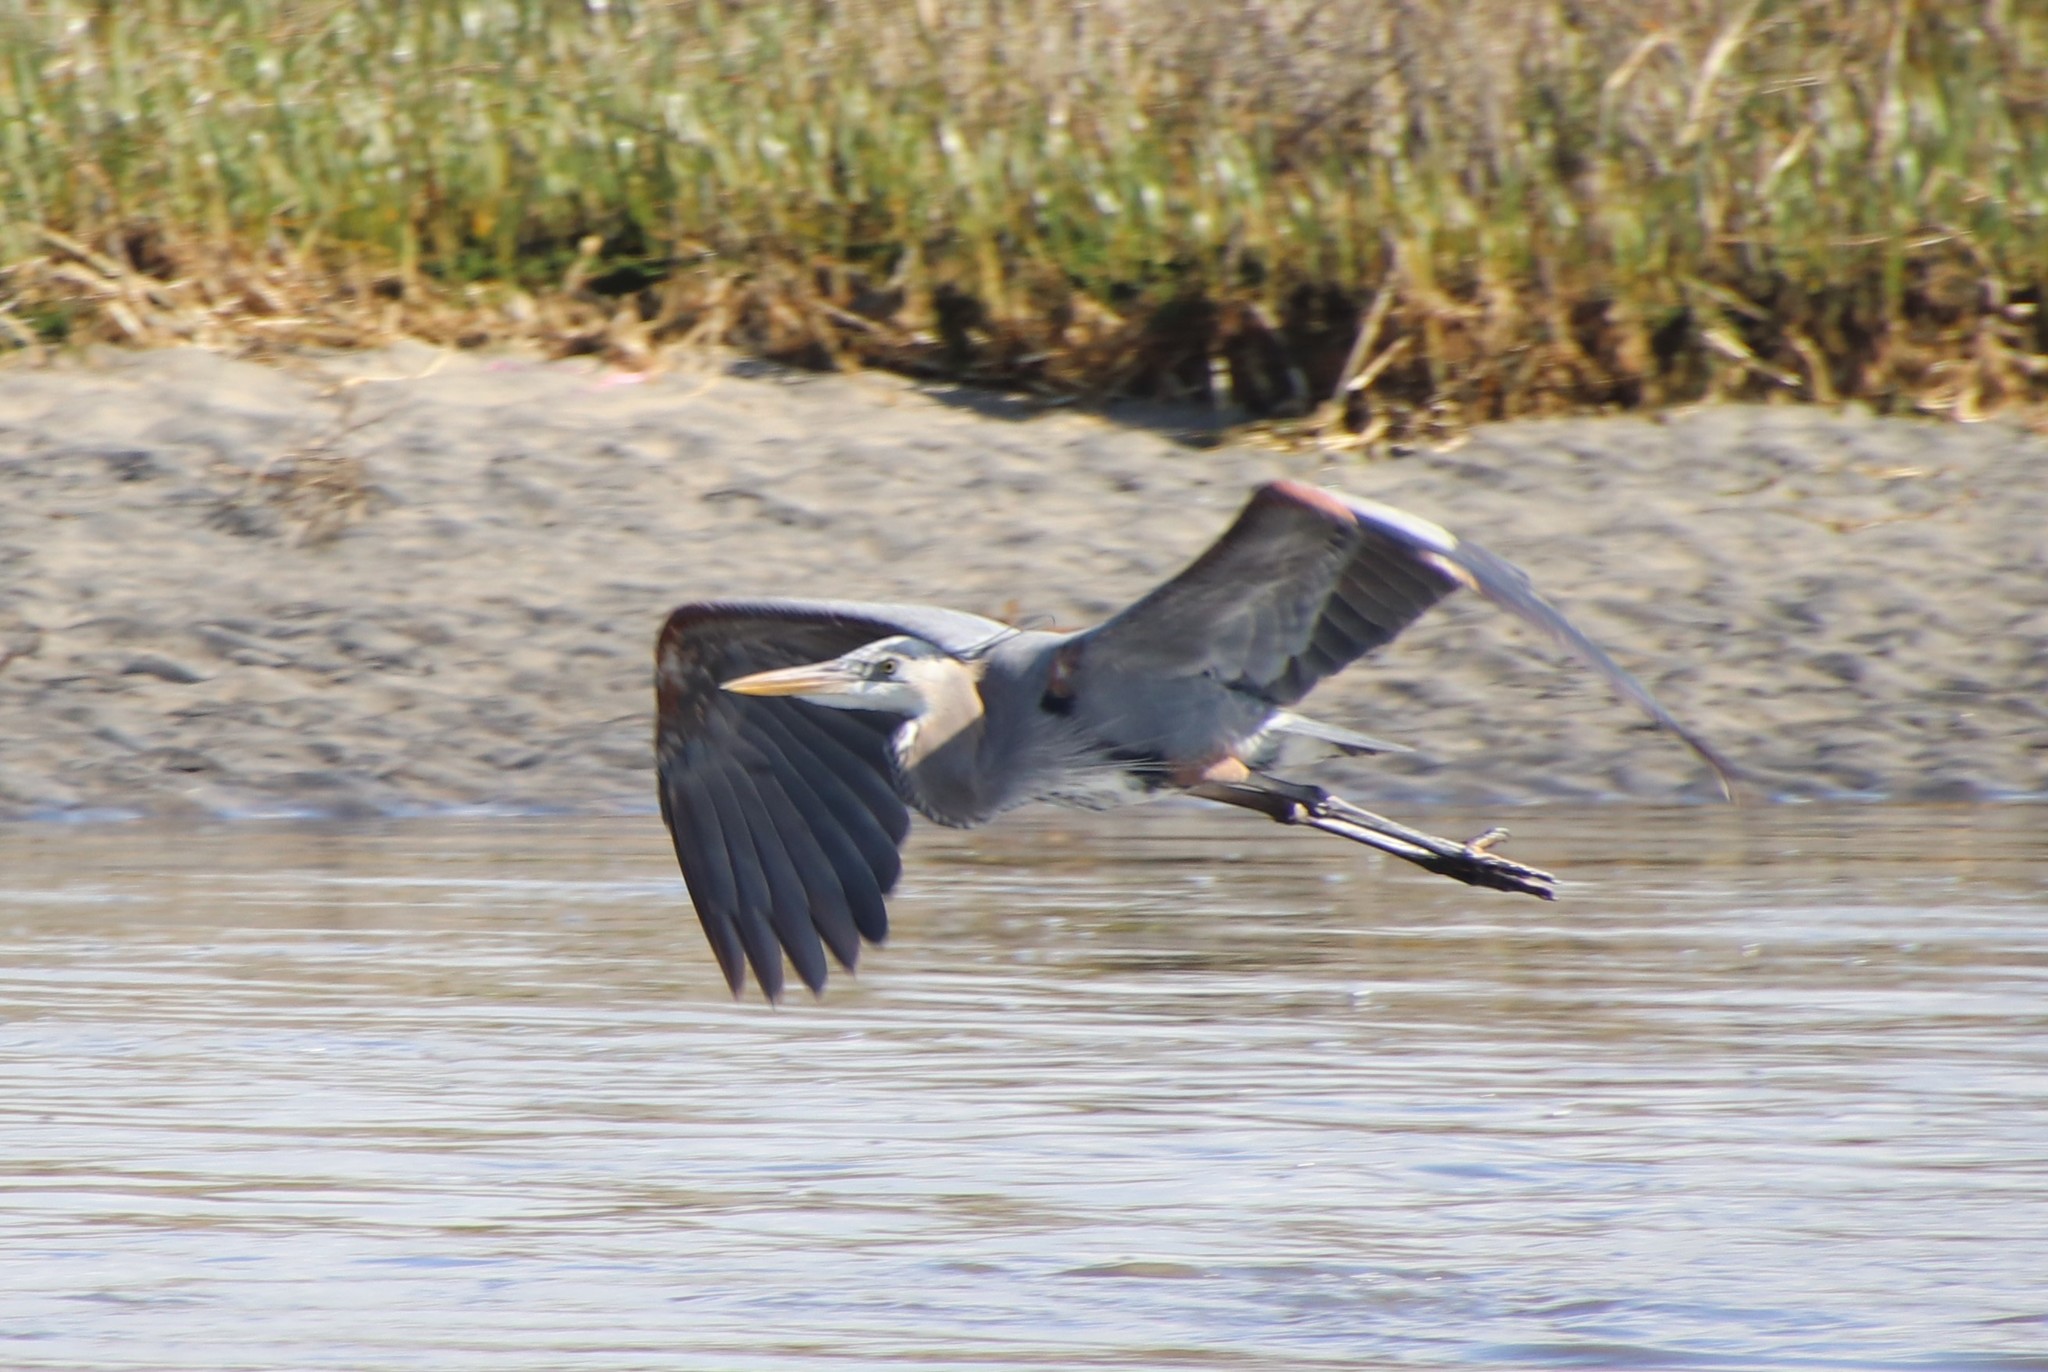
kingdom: Animalia
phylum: Chordata
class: Aves
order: Pelecaniformes
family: Ardeidae
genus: Ardea
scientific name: Ardea herodias
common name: Great blue heron
